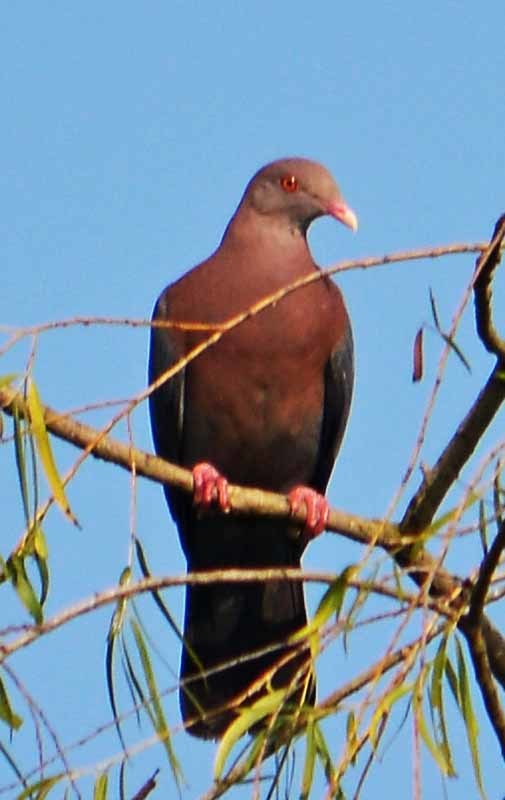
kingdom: Animalia
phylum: Chordata
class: Aves
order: Columbiformes
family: Columbidae
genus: Patagioenas
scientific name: Patagioenas flavirostris
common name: Red-billed pigeon
